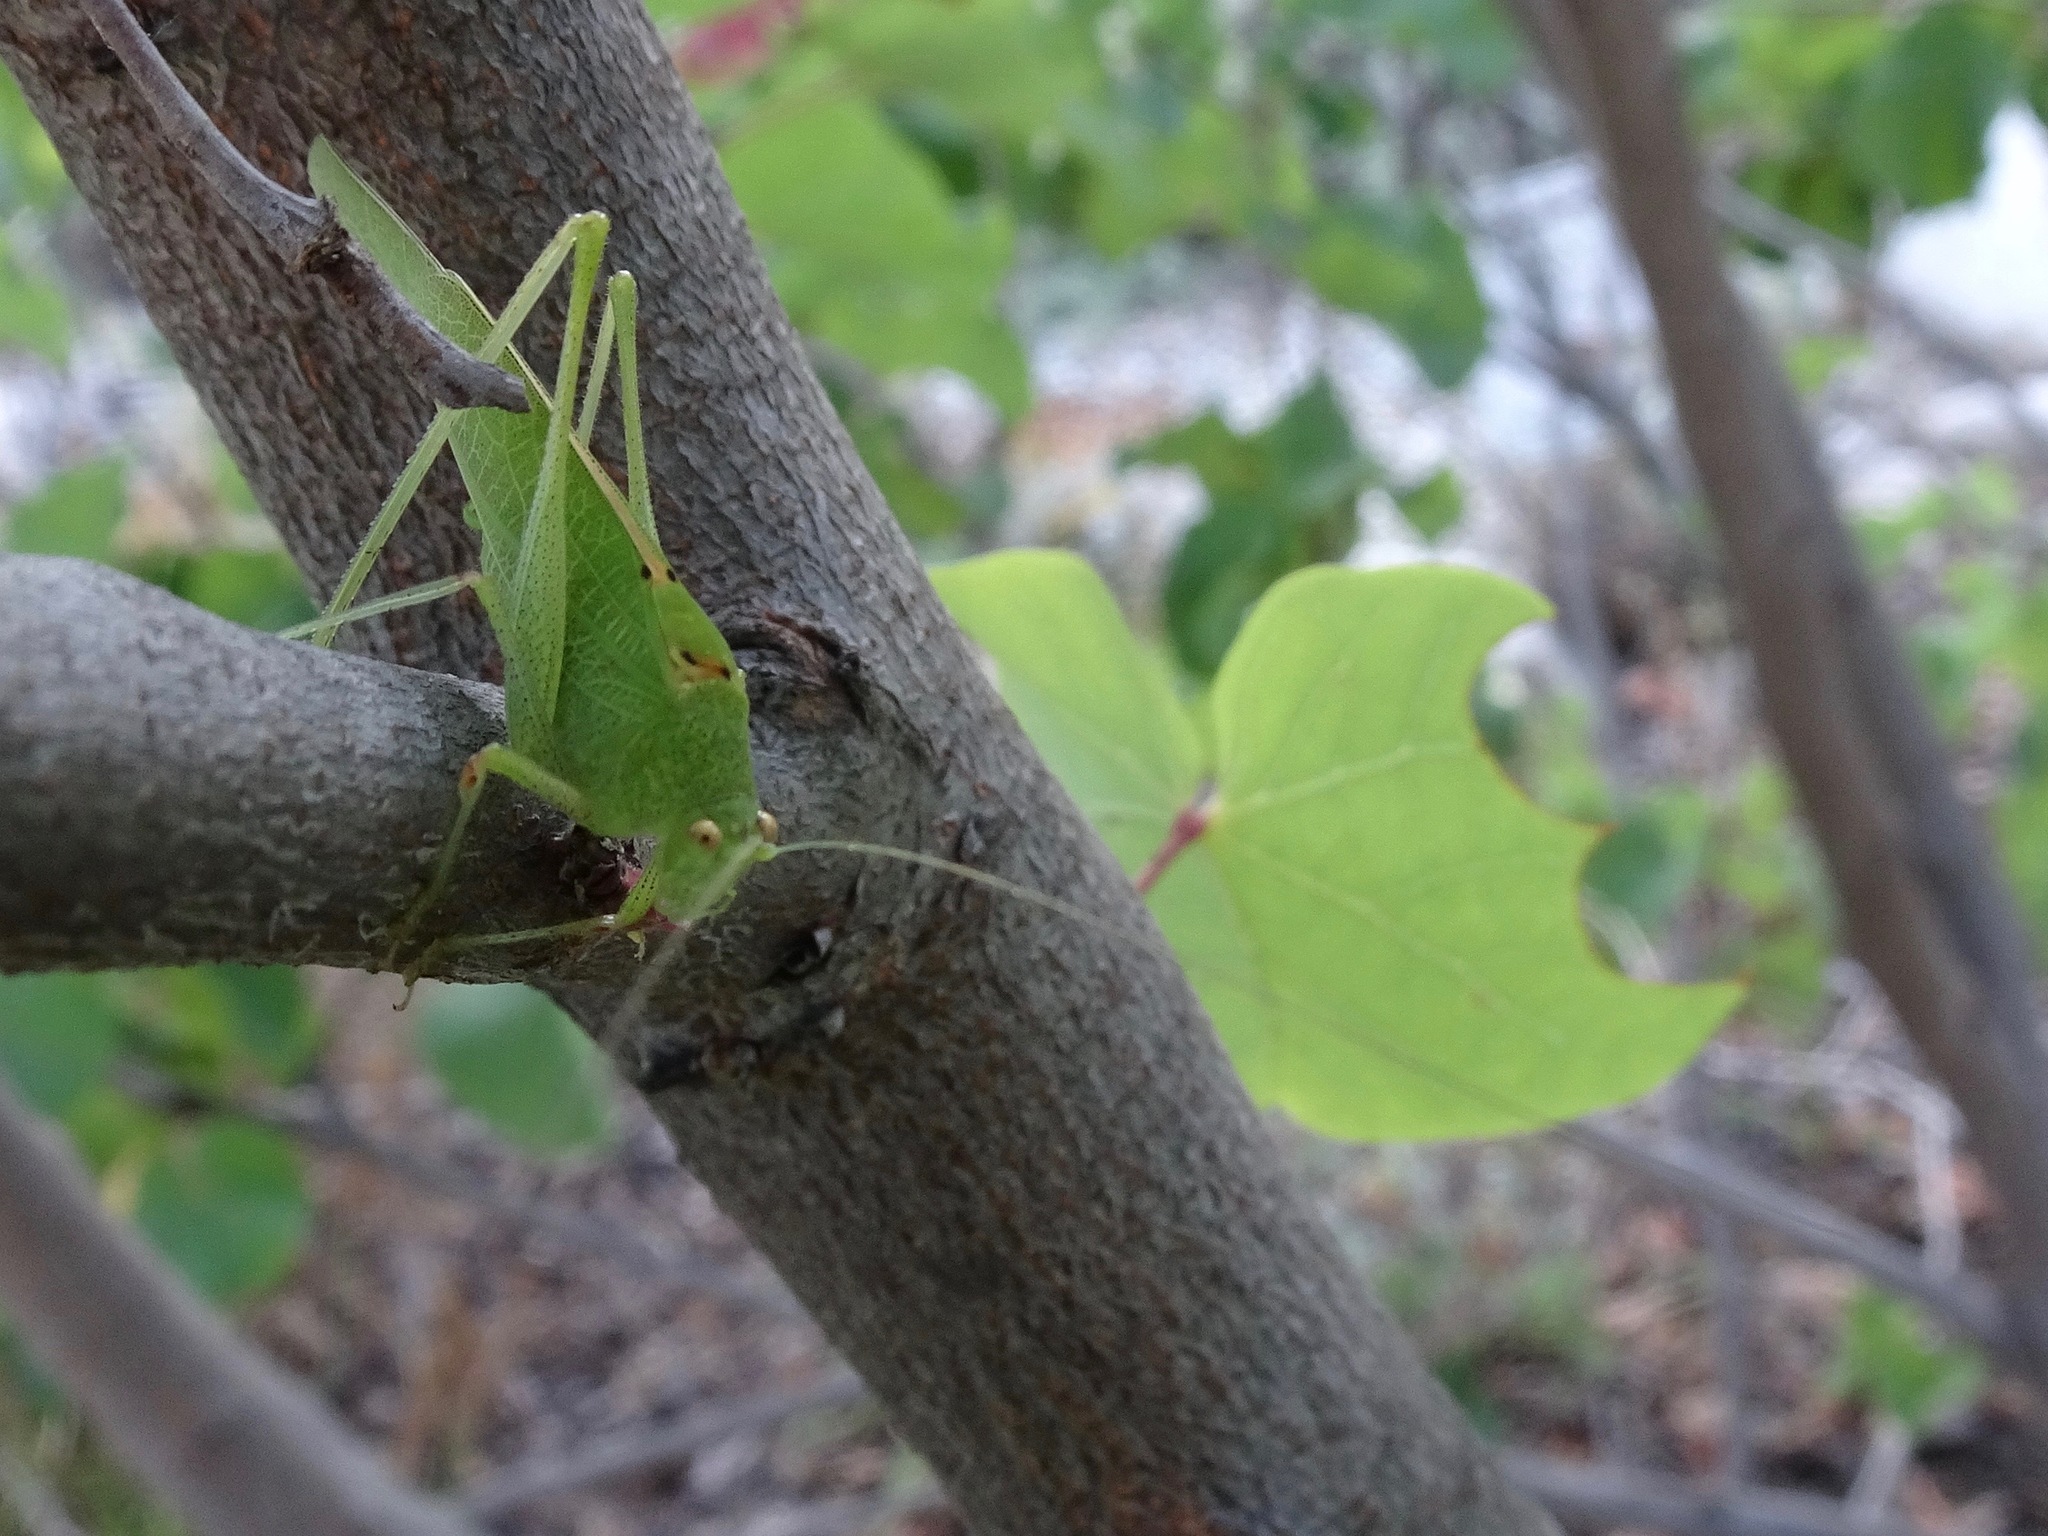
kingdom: Animalia
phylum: Arthropoda
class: Insecta
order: Orthoptera
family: Tettigoniidae
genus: Phaneroptera
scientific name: Phaneroptera nana
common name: Southern sickle bush-cricket
